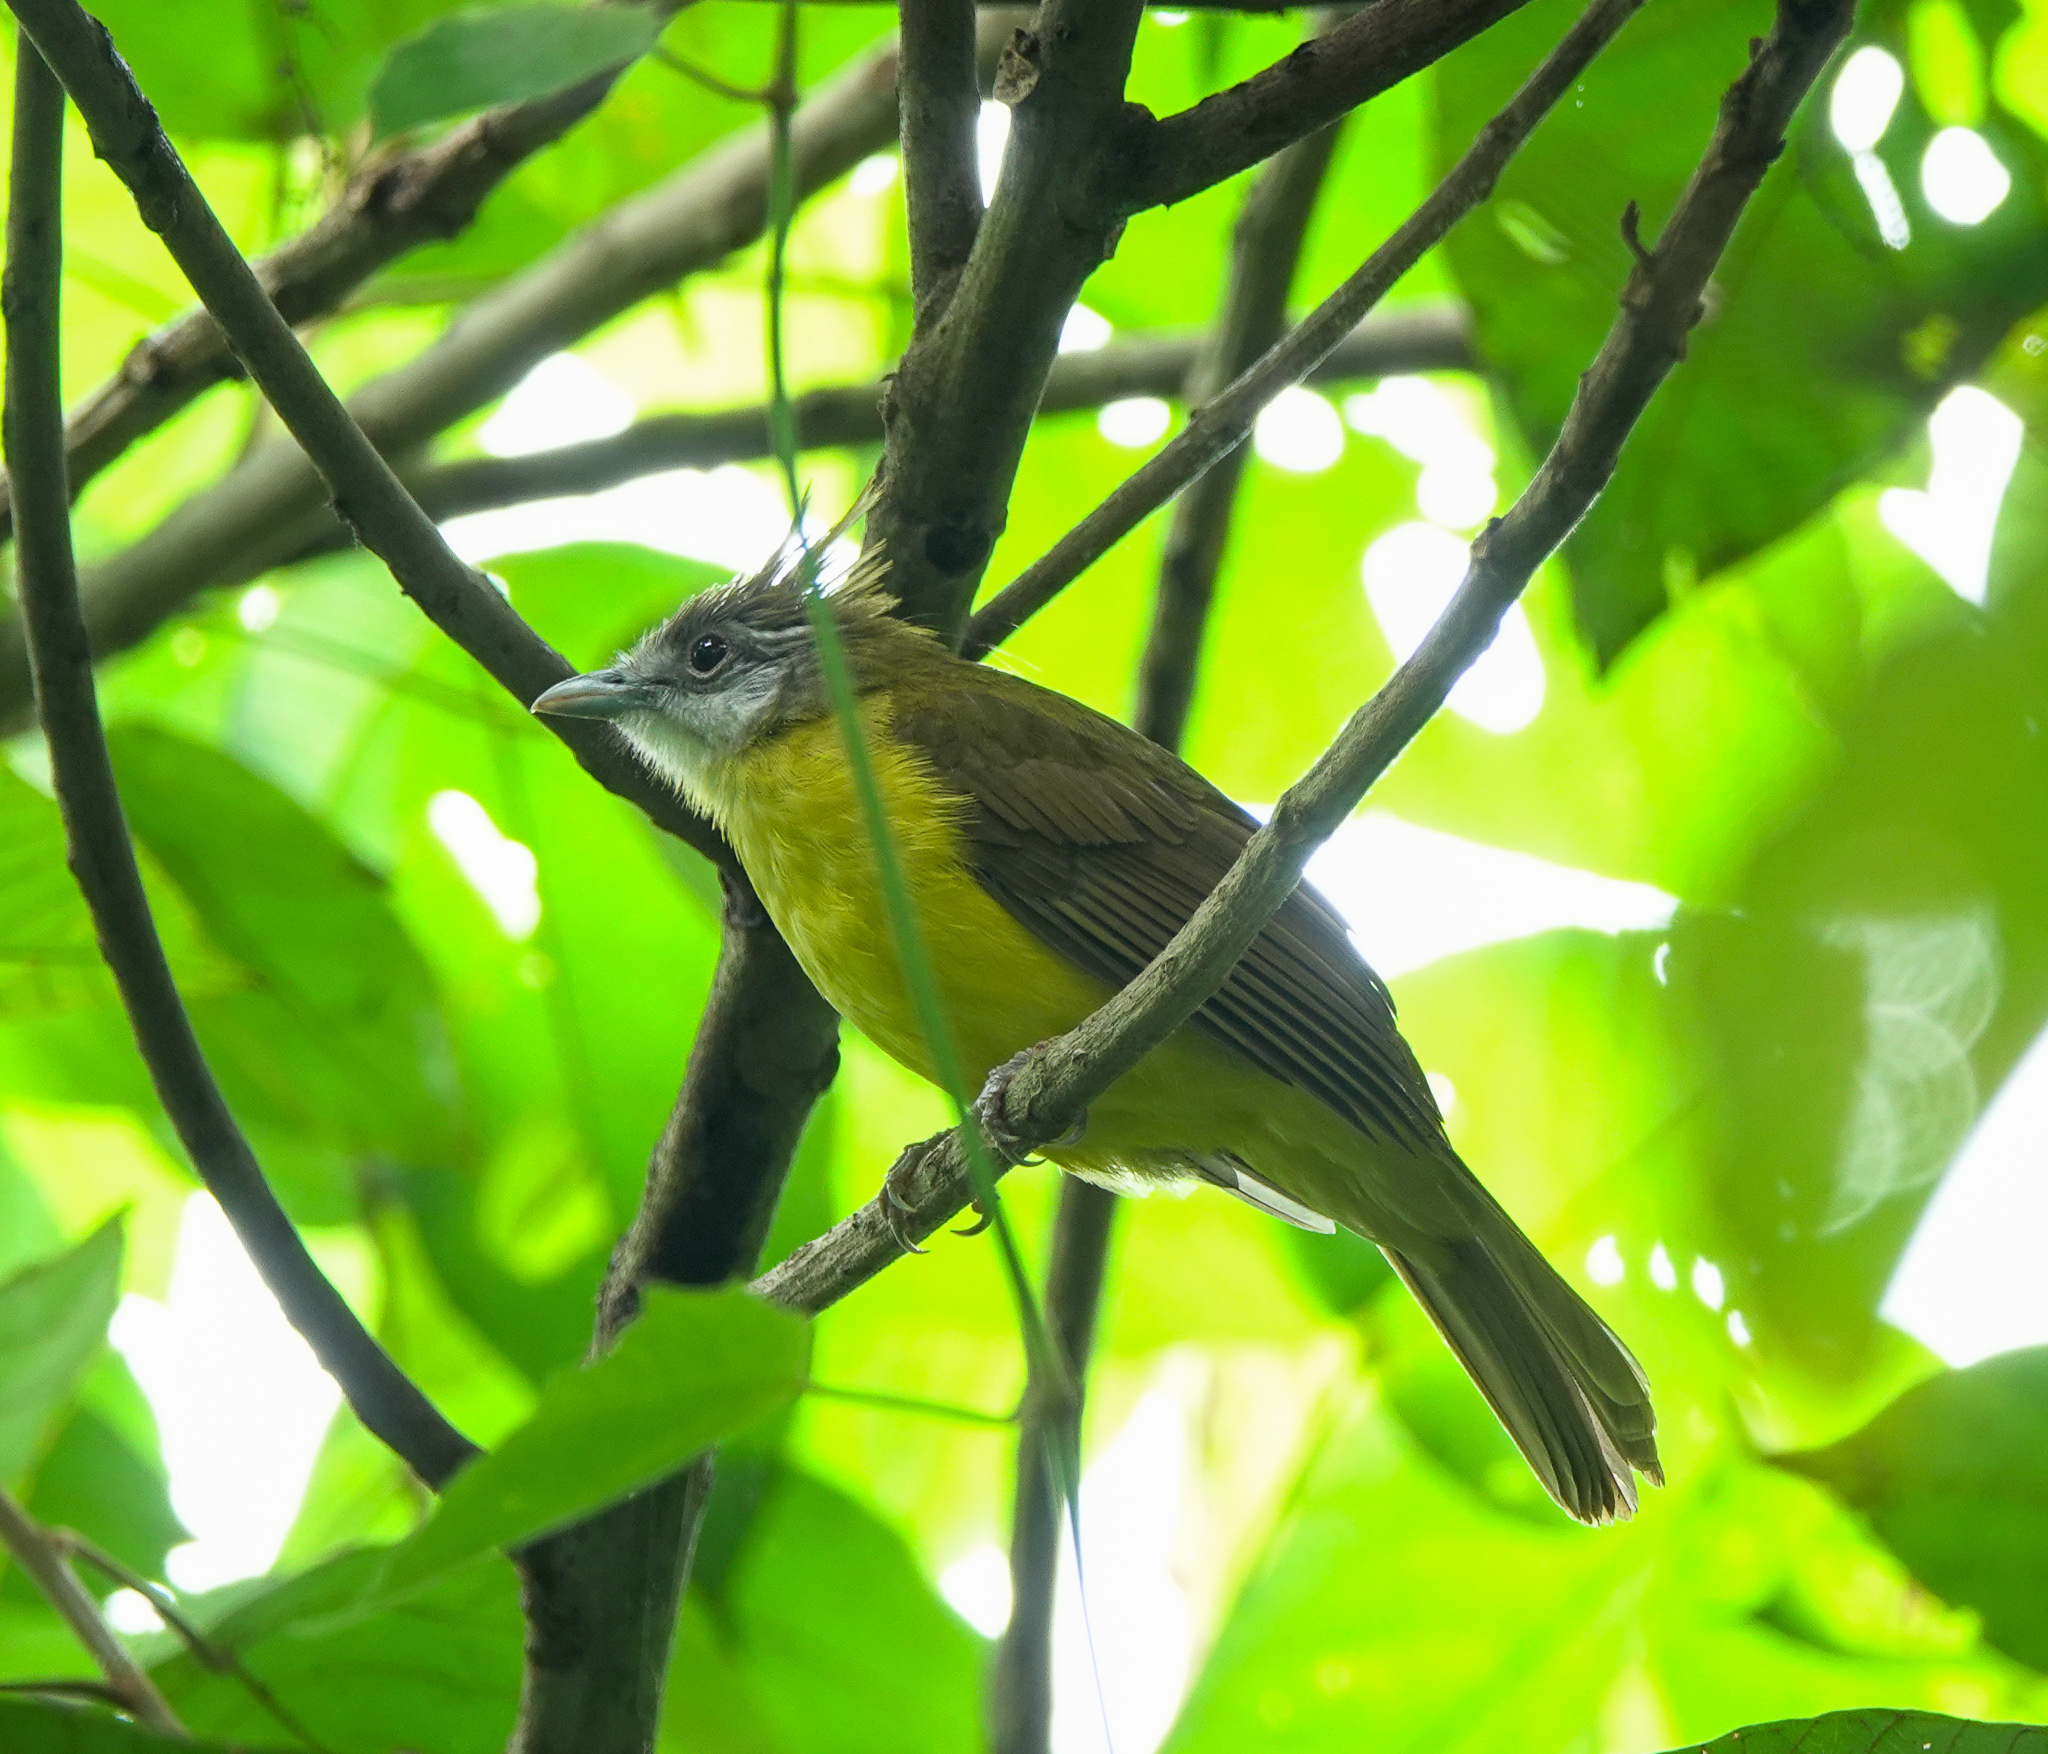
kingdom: Animalia
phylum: Chordata
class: Aves
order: Passeriformes
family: Pycnonotidae
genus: Alophoixus
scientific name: Alophoixus flaveolus
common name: White-throated bulbul
